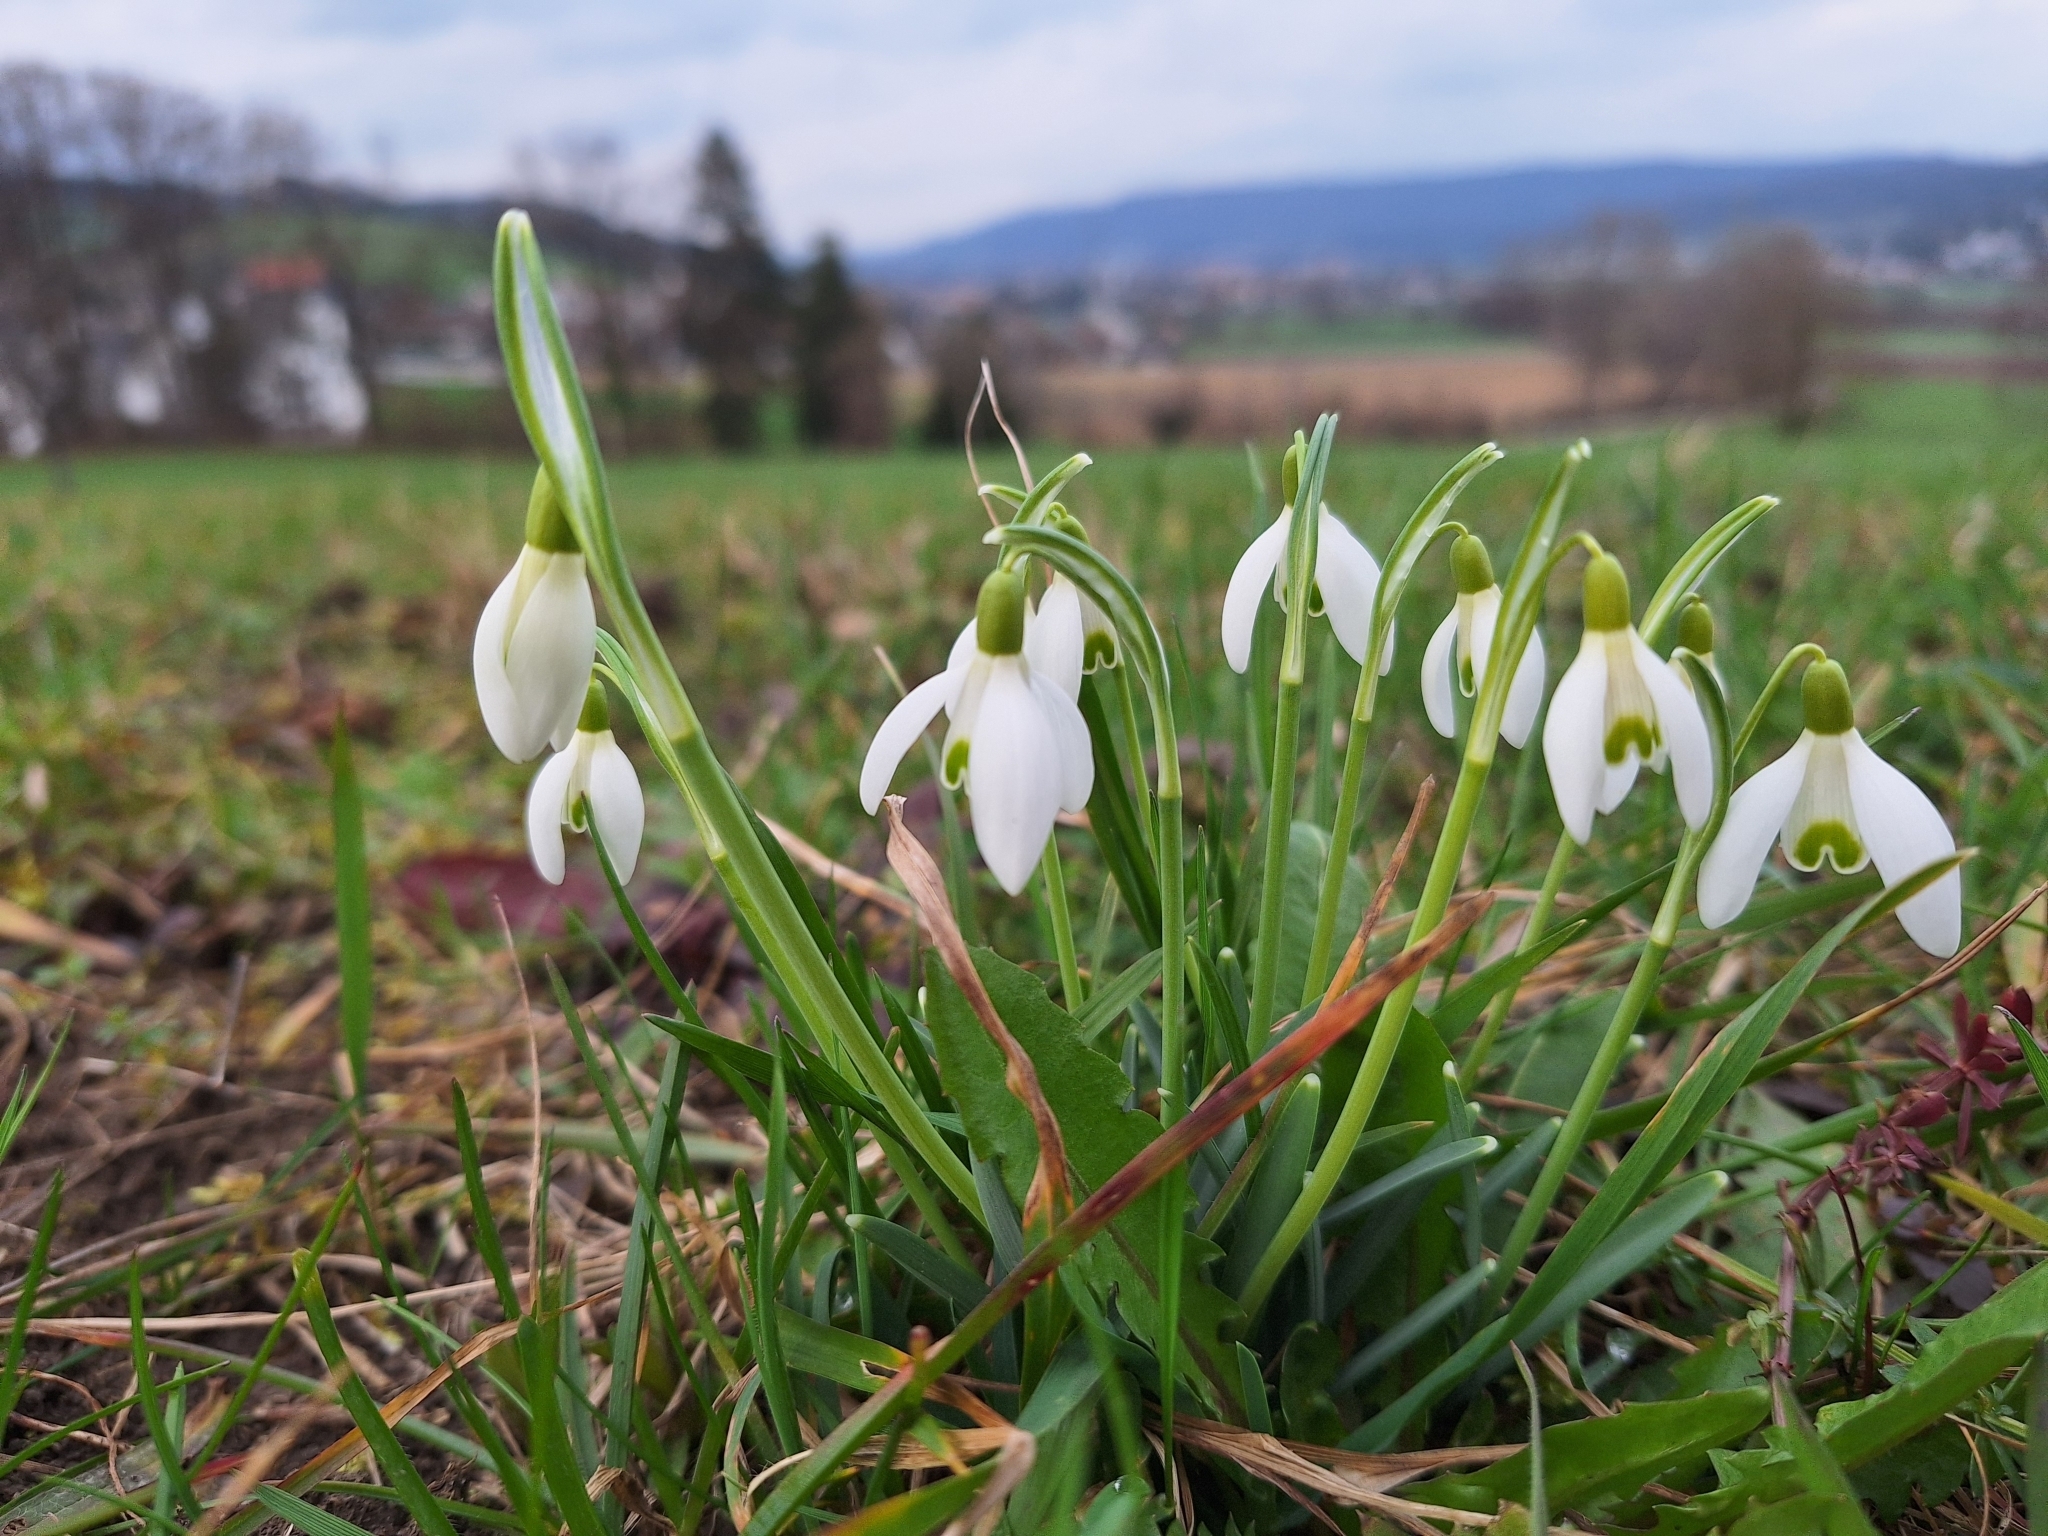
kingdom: Plantae
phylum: Tracheophyta
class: Liliopsida
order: Asparagales
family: Amaryllidaceae
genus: Galanthus
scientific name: Galanthus nivalis
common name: Snowdrop
